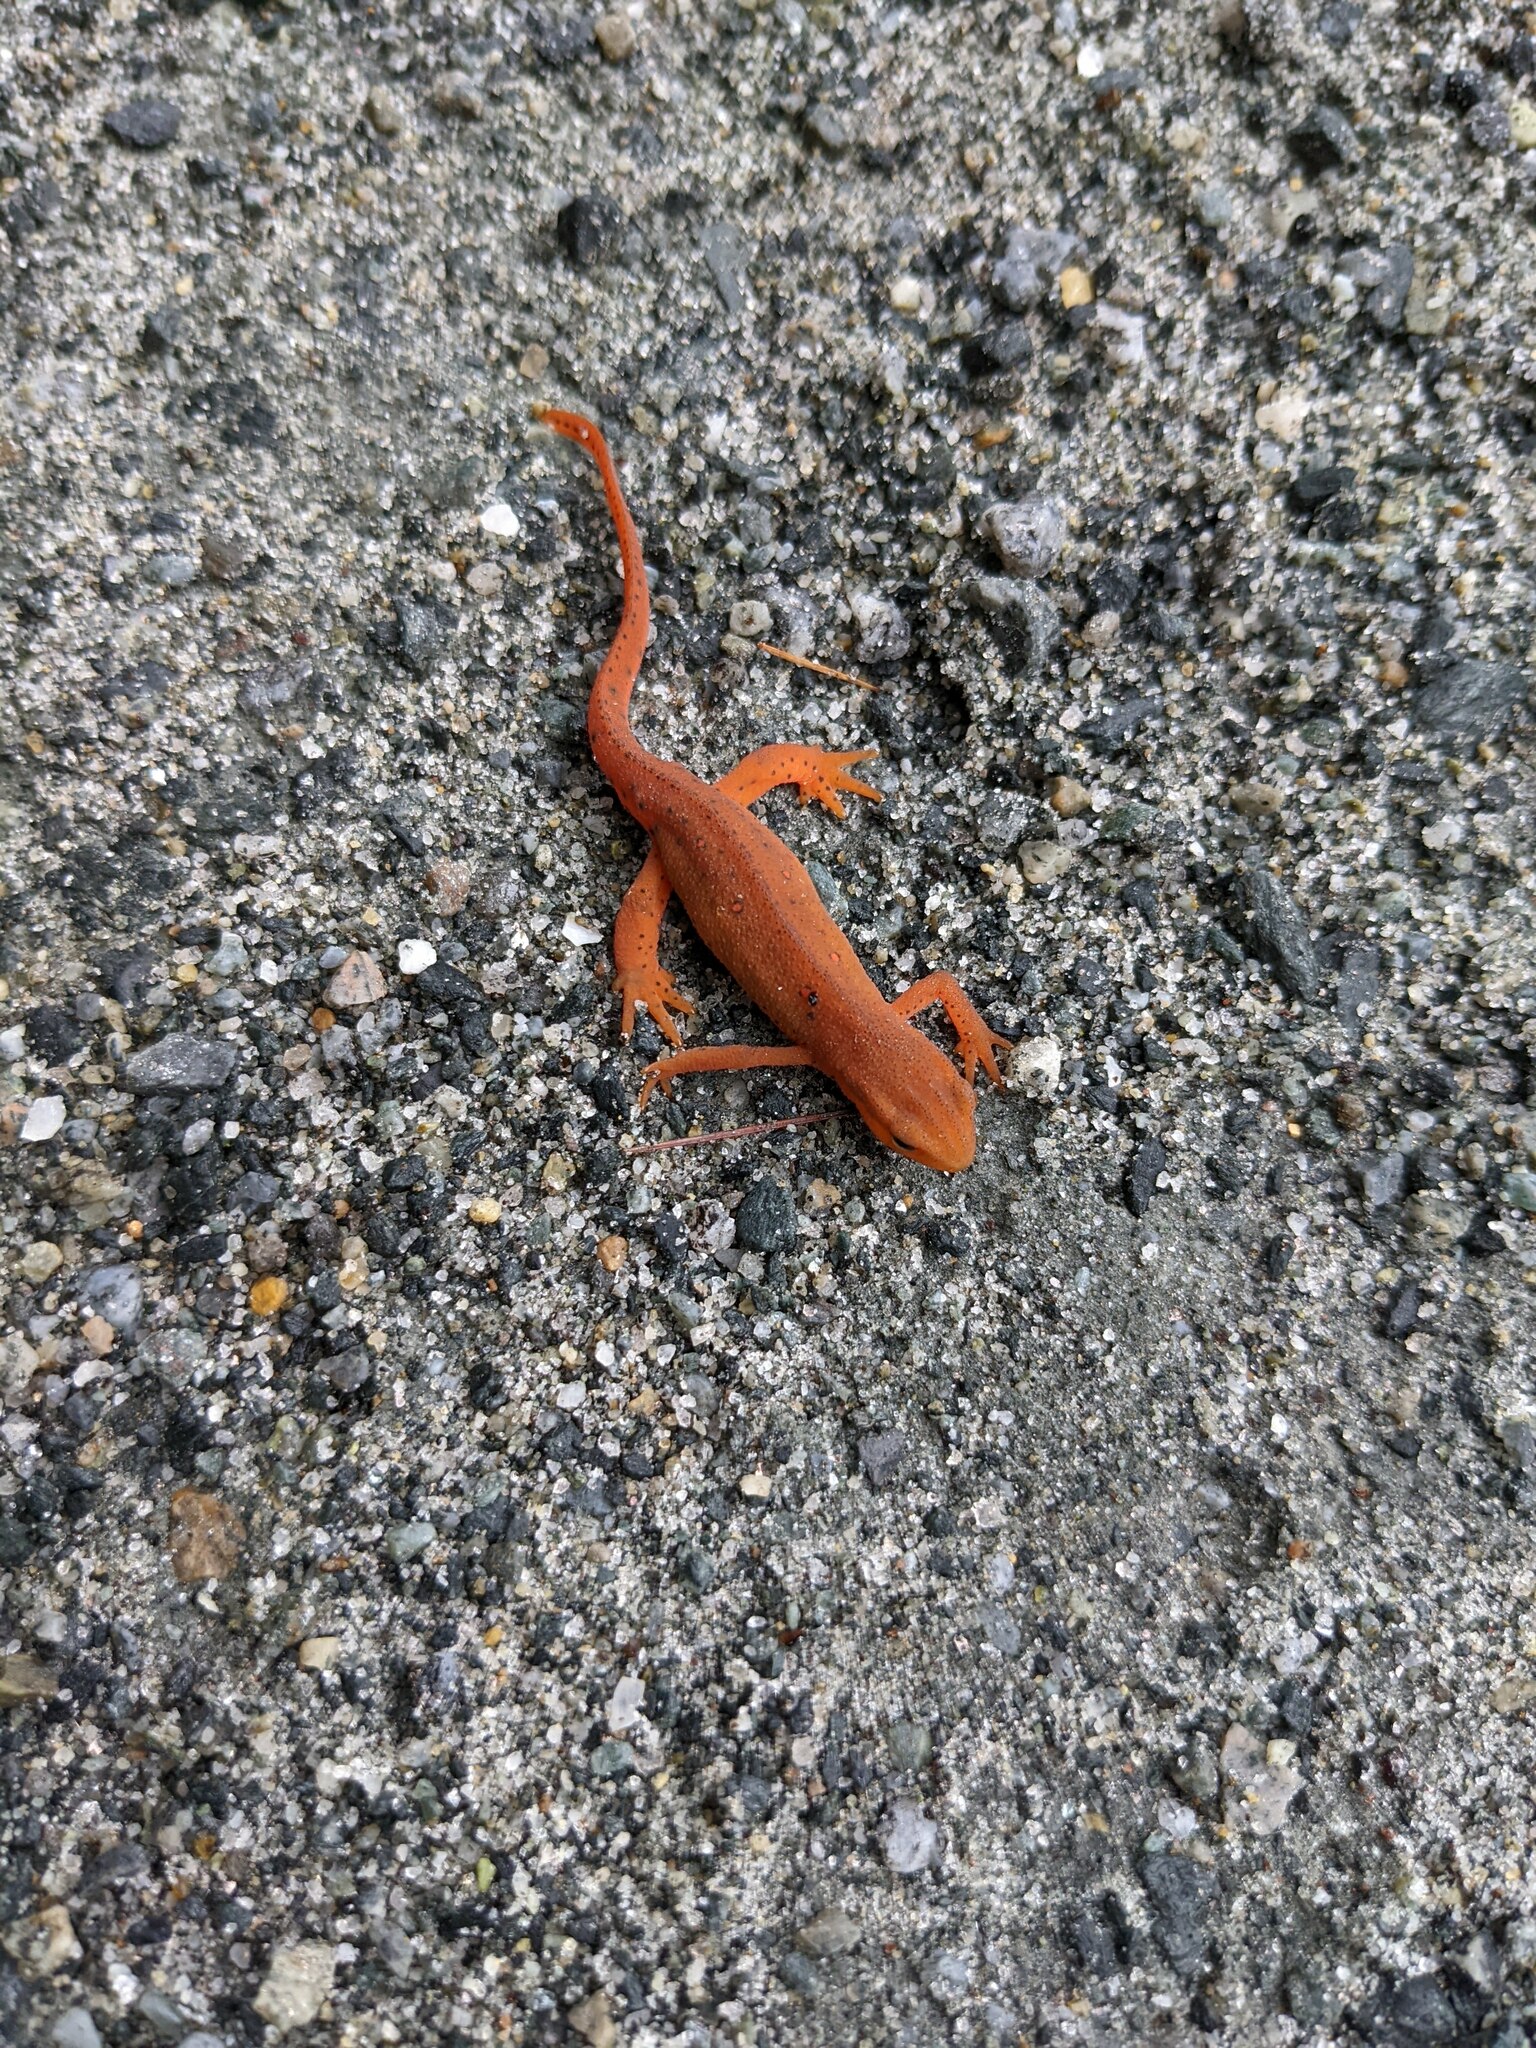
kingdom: Animalia
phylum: Chordata
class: Amphibia
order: Caudata
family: Salamandridae
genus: Notophthalmus
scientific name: Notophthalmus viridescens
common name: Eastern newt
